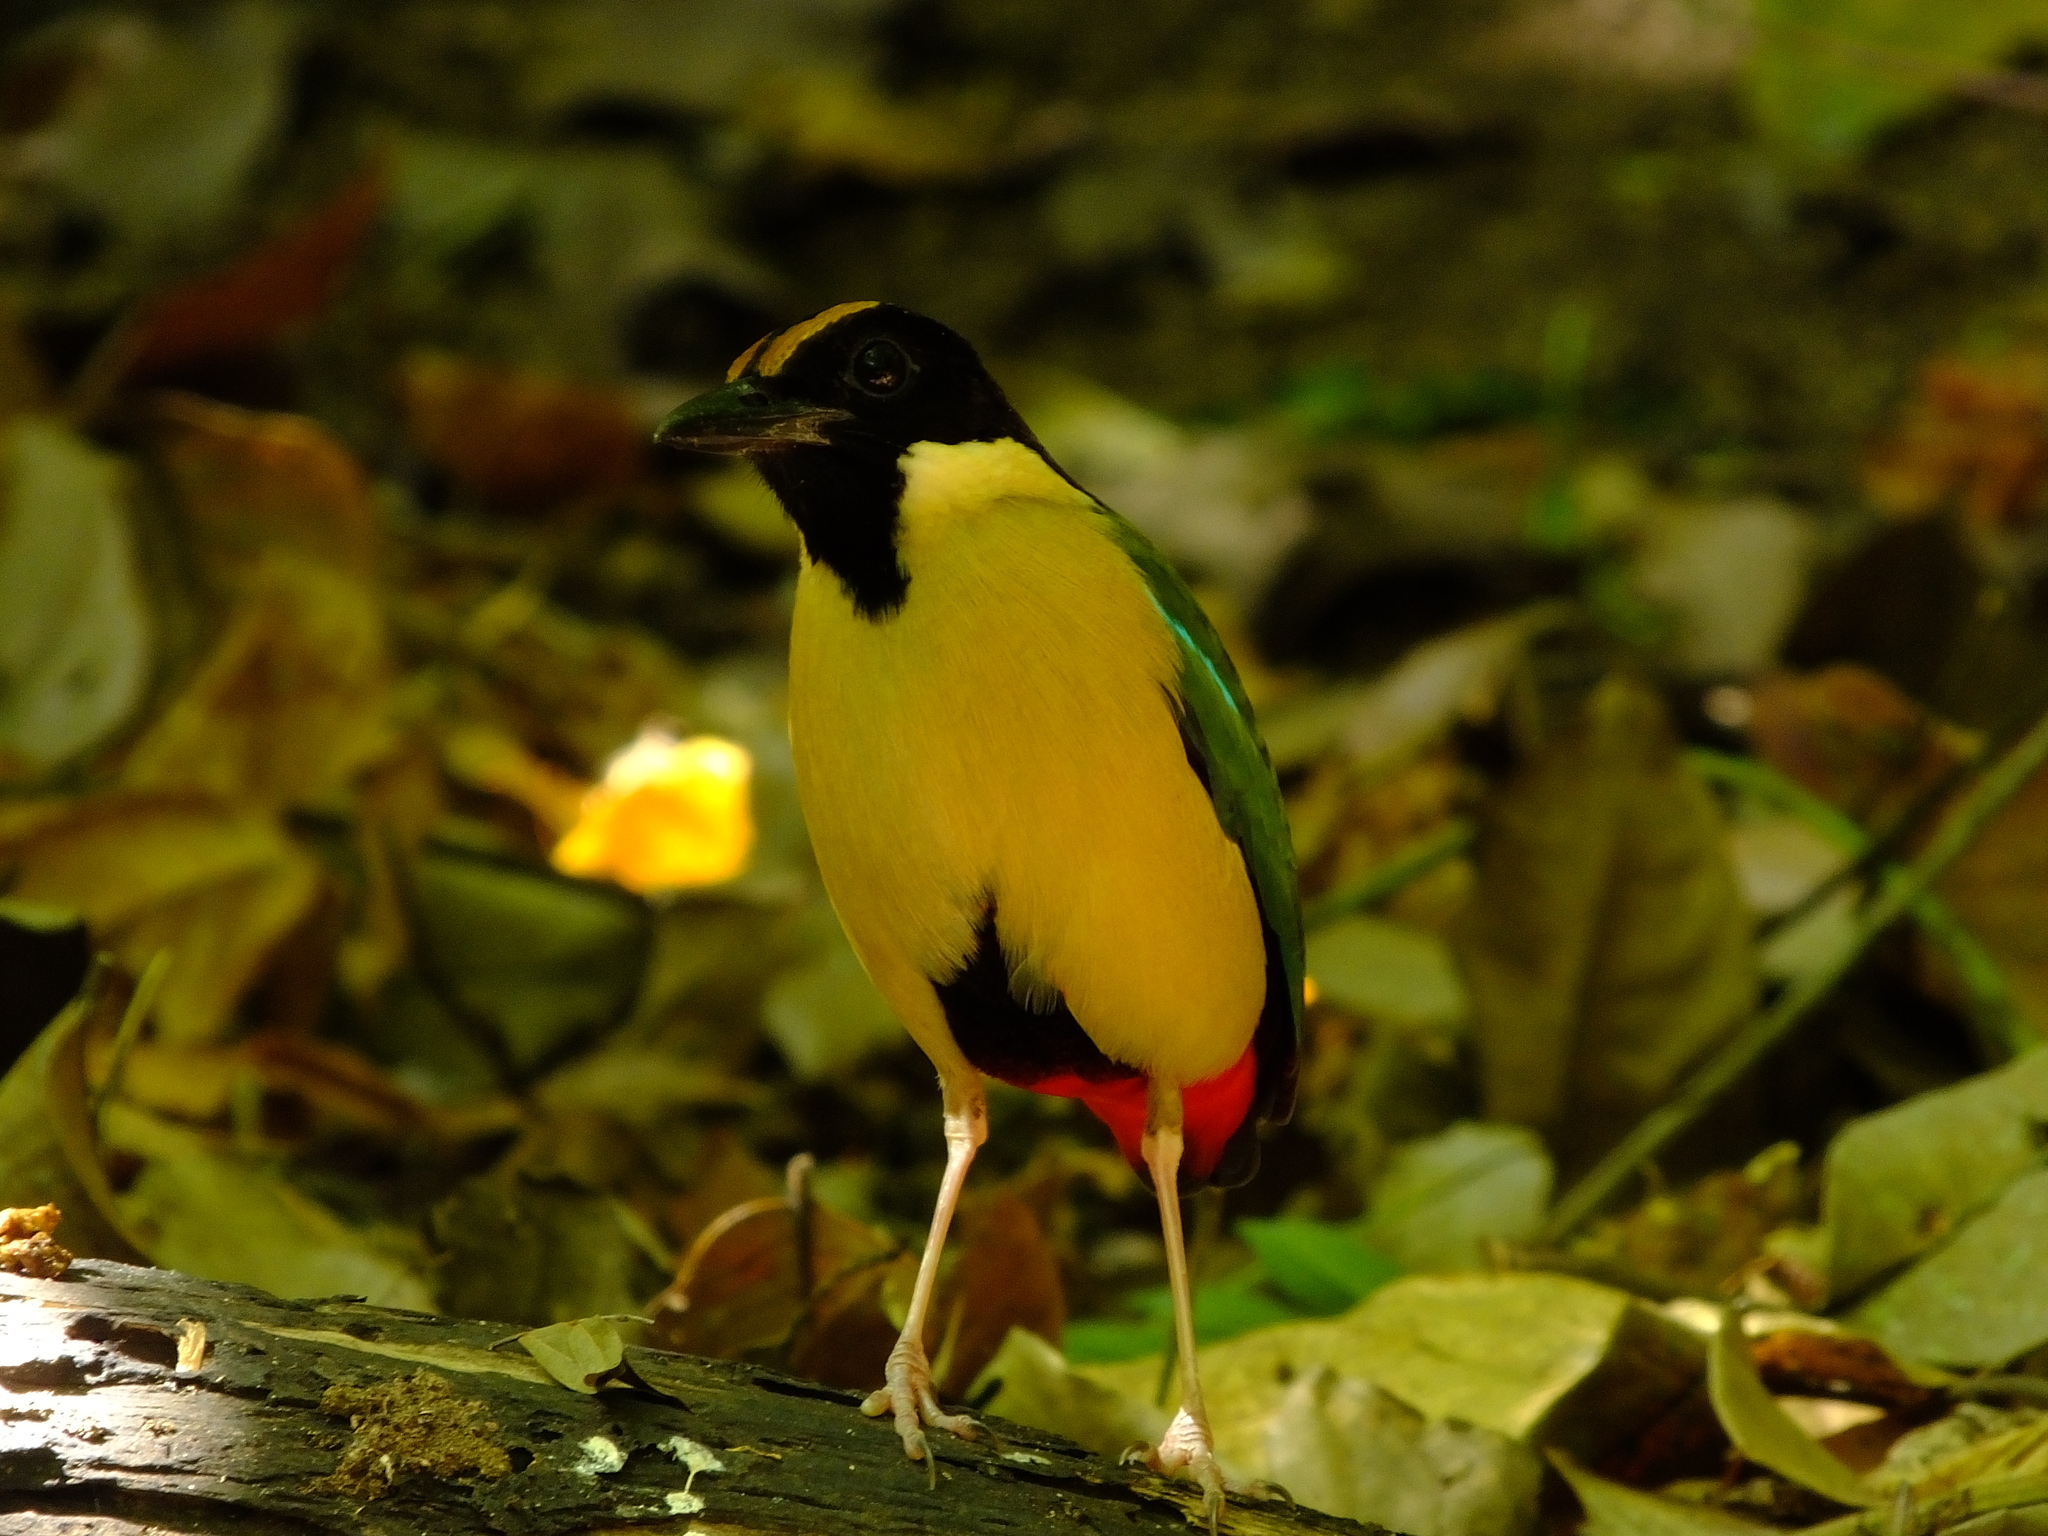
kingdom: Animalia
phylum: Chordata
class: Aves
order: Passeriformes
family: Pittidae
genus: Pitta
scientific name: Pitta concinna
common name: Ornate pitta
